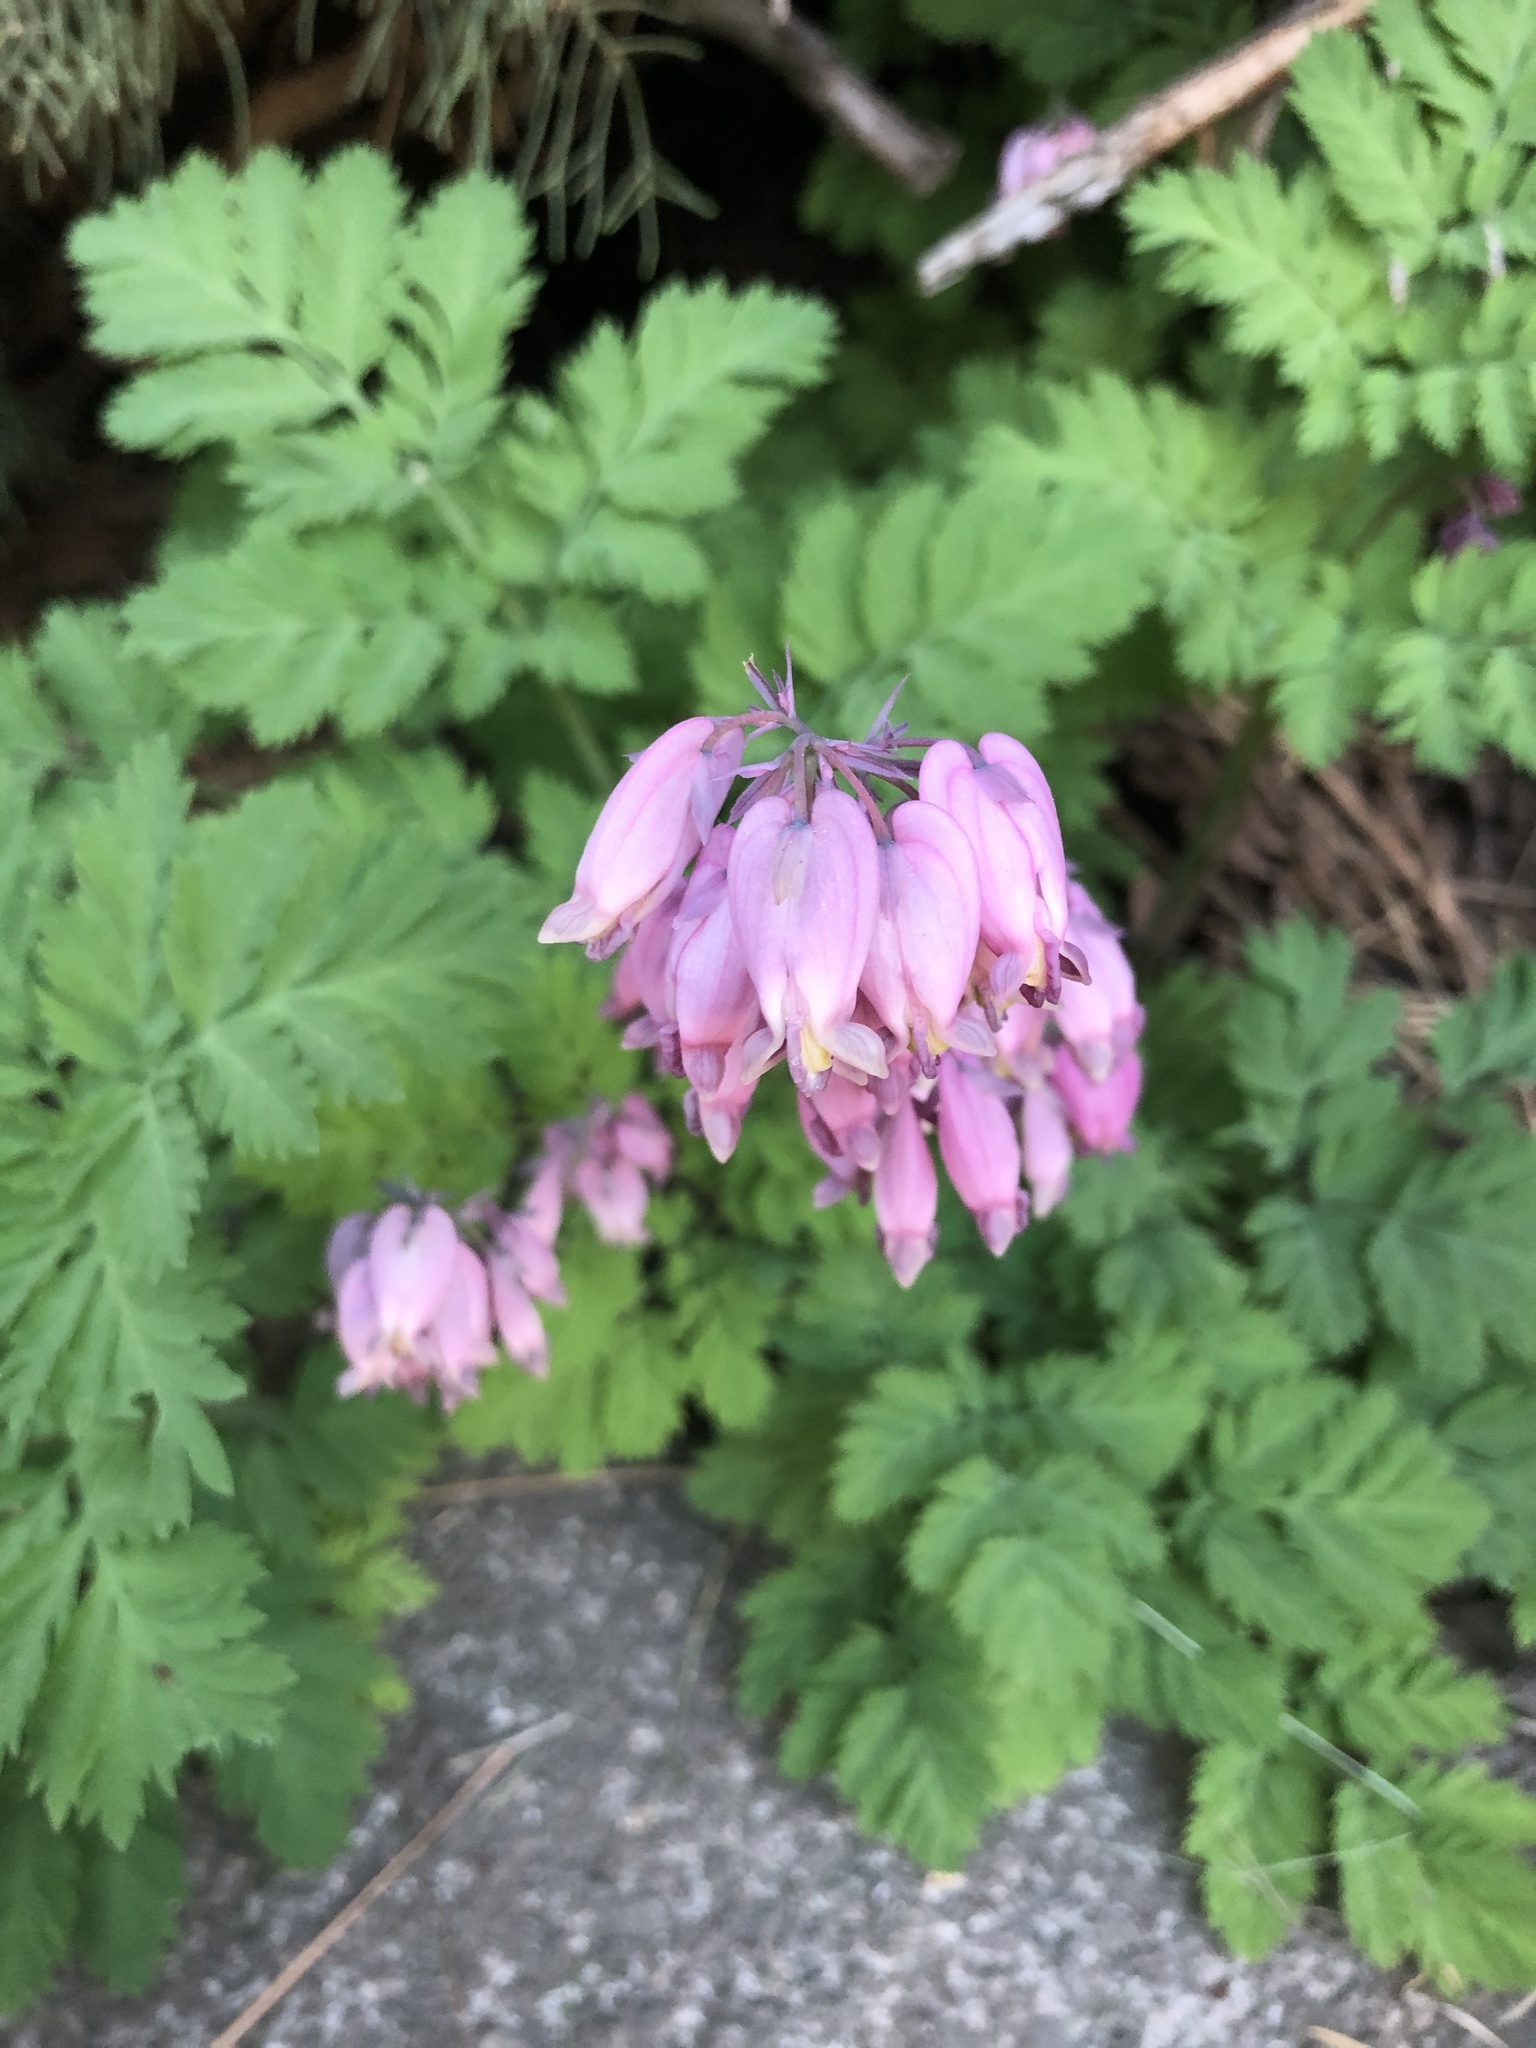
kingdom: Plantae
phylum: Tracheophyta
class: Magnoliopsida
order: Ranunculales
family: Papaveraceae
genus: Dicentra
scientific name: Dicentra formosa
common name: Bleeding-heart
